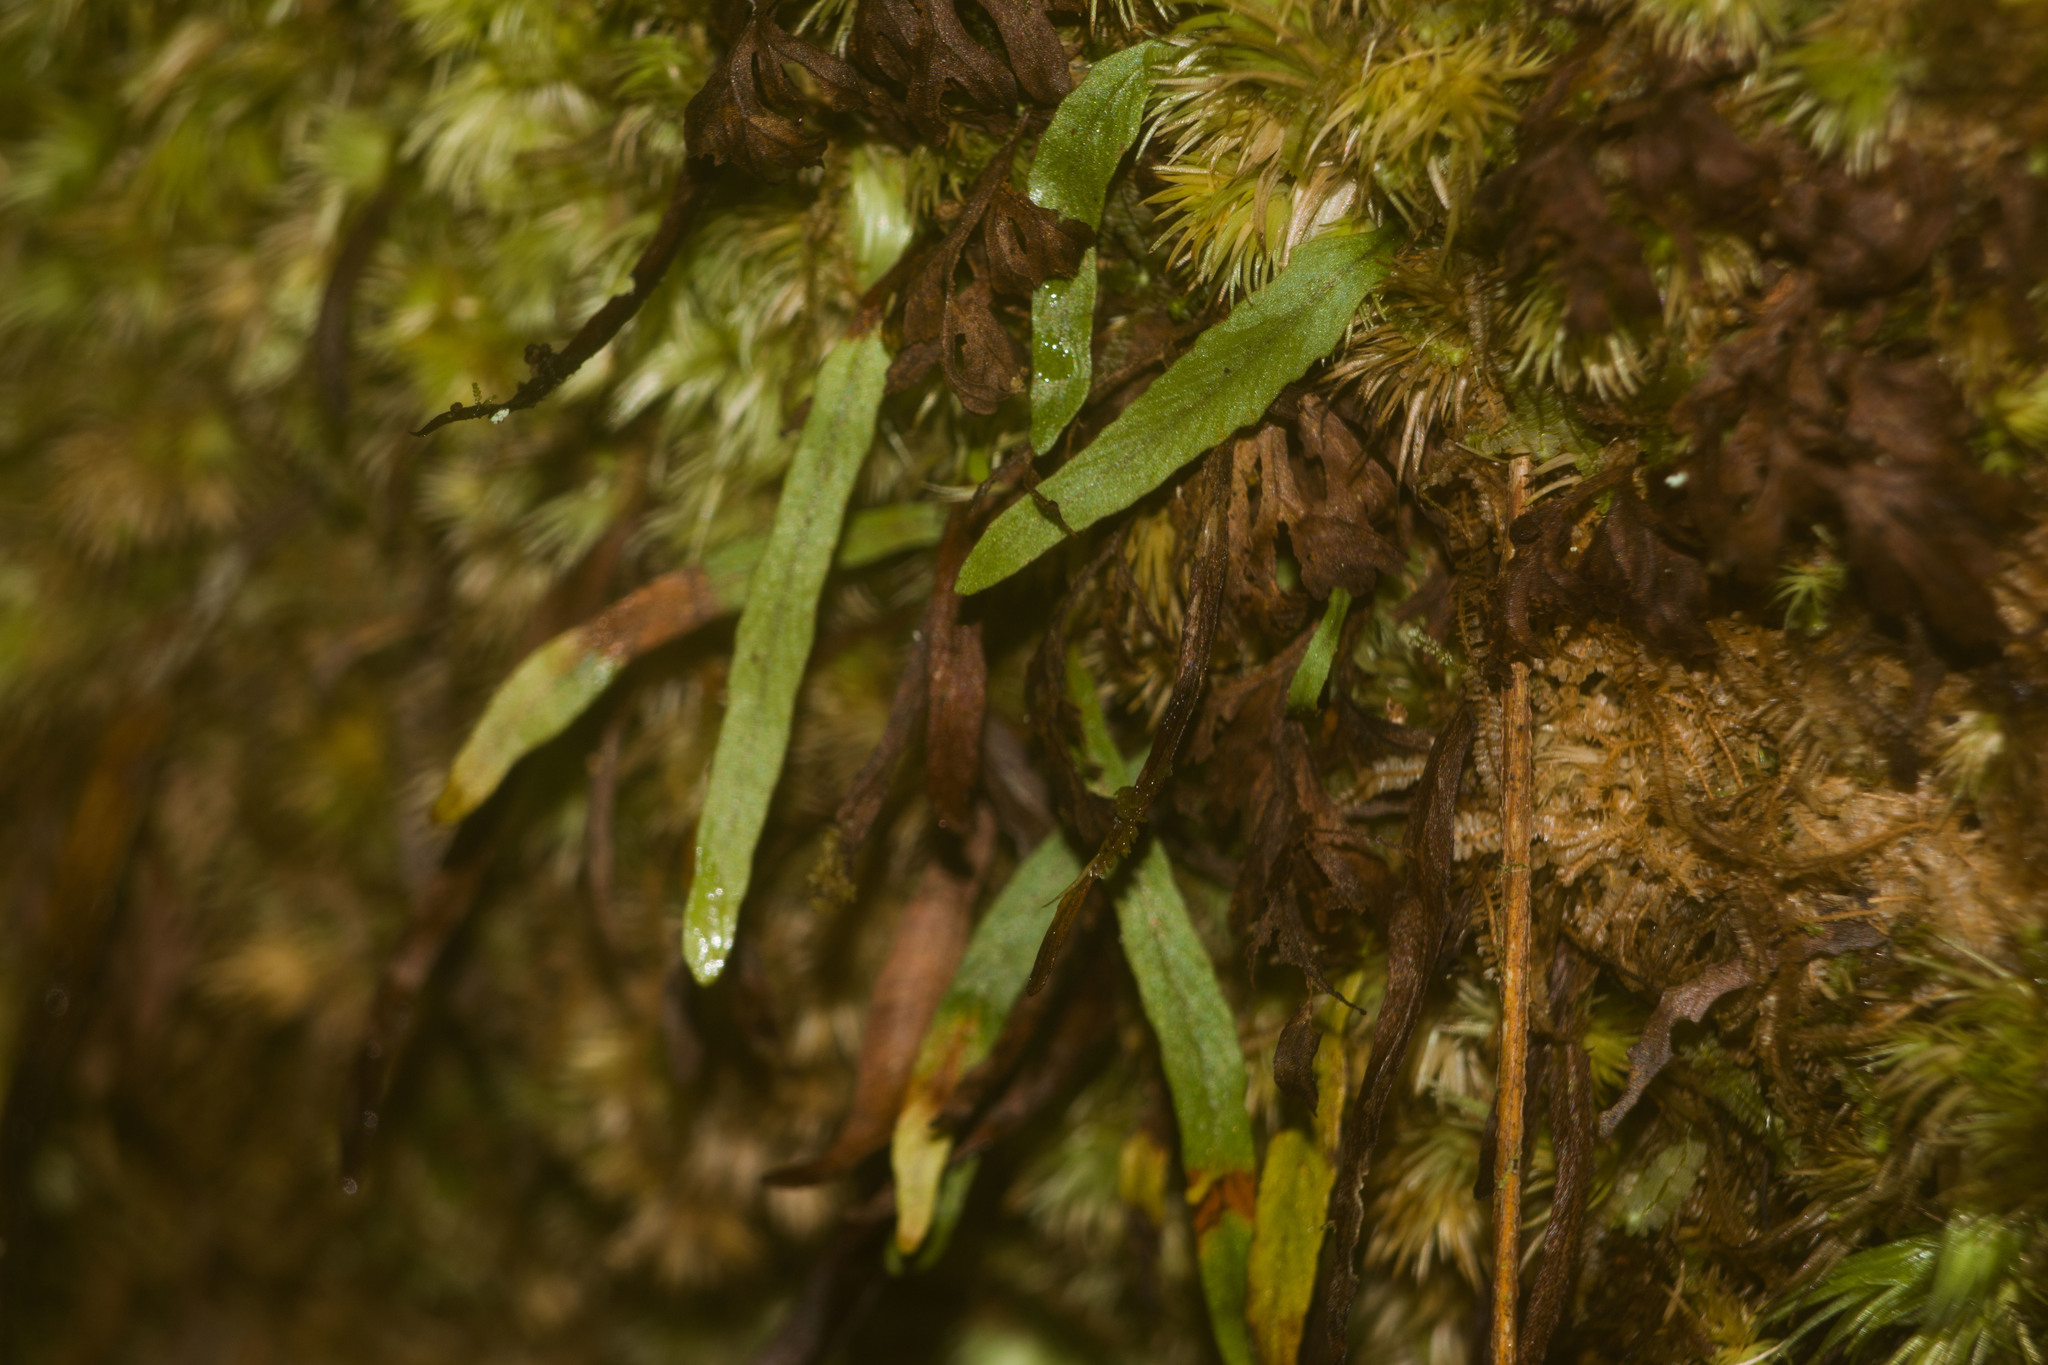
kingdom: Plantae
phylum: Tracheophyta
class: Polypodiopsida
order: Polypodiales
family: Polypodiaceae
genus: Adenophorus
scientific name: Adenophorus tenellus
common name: Kolokolo
